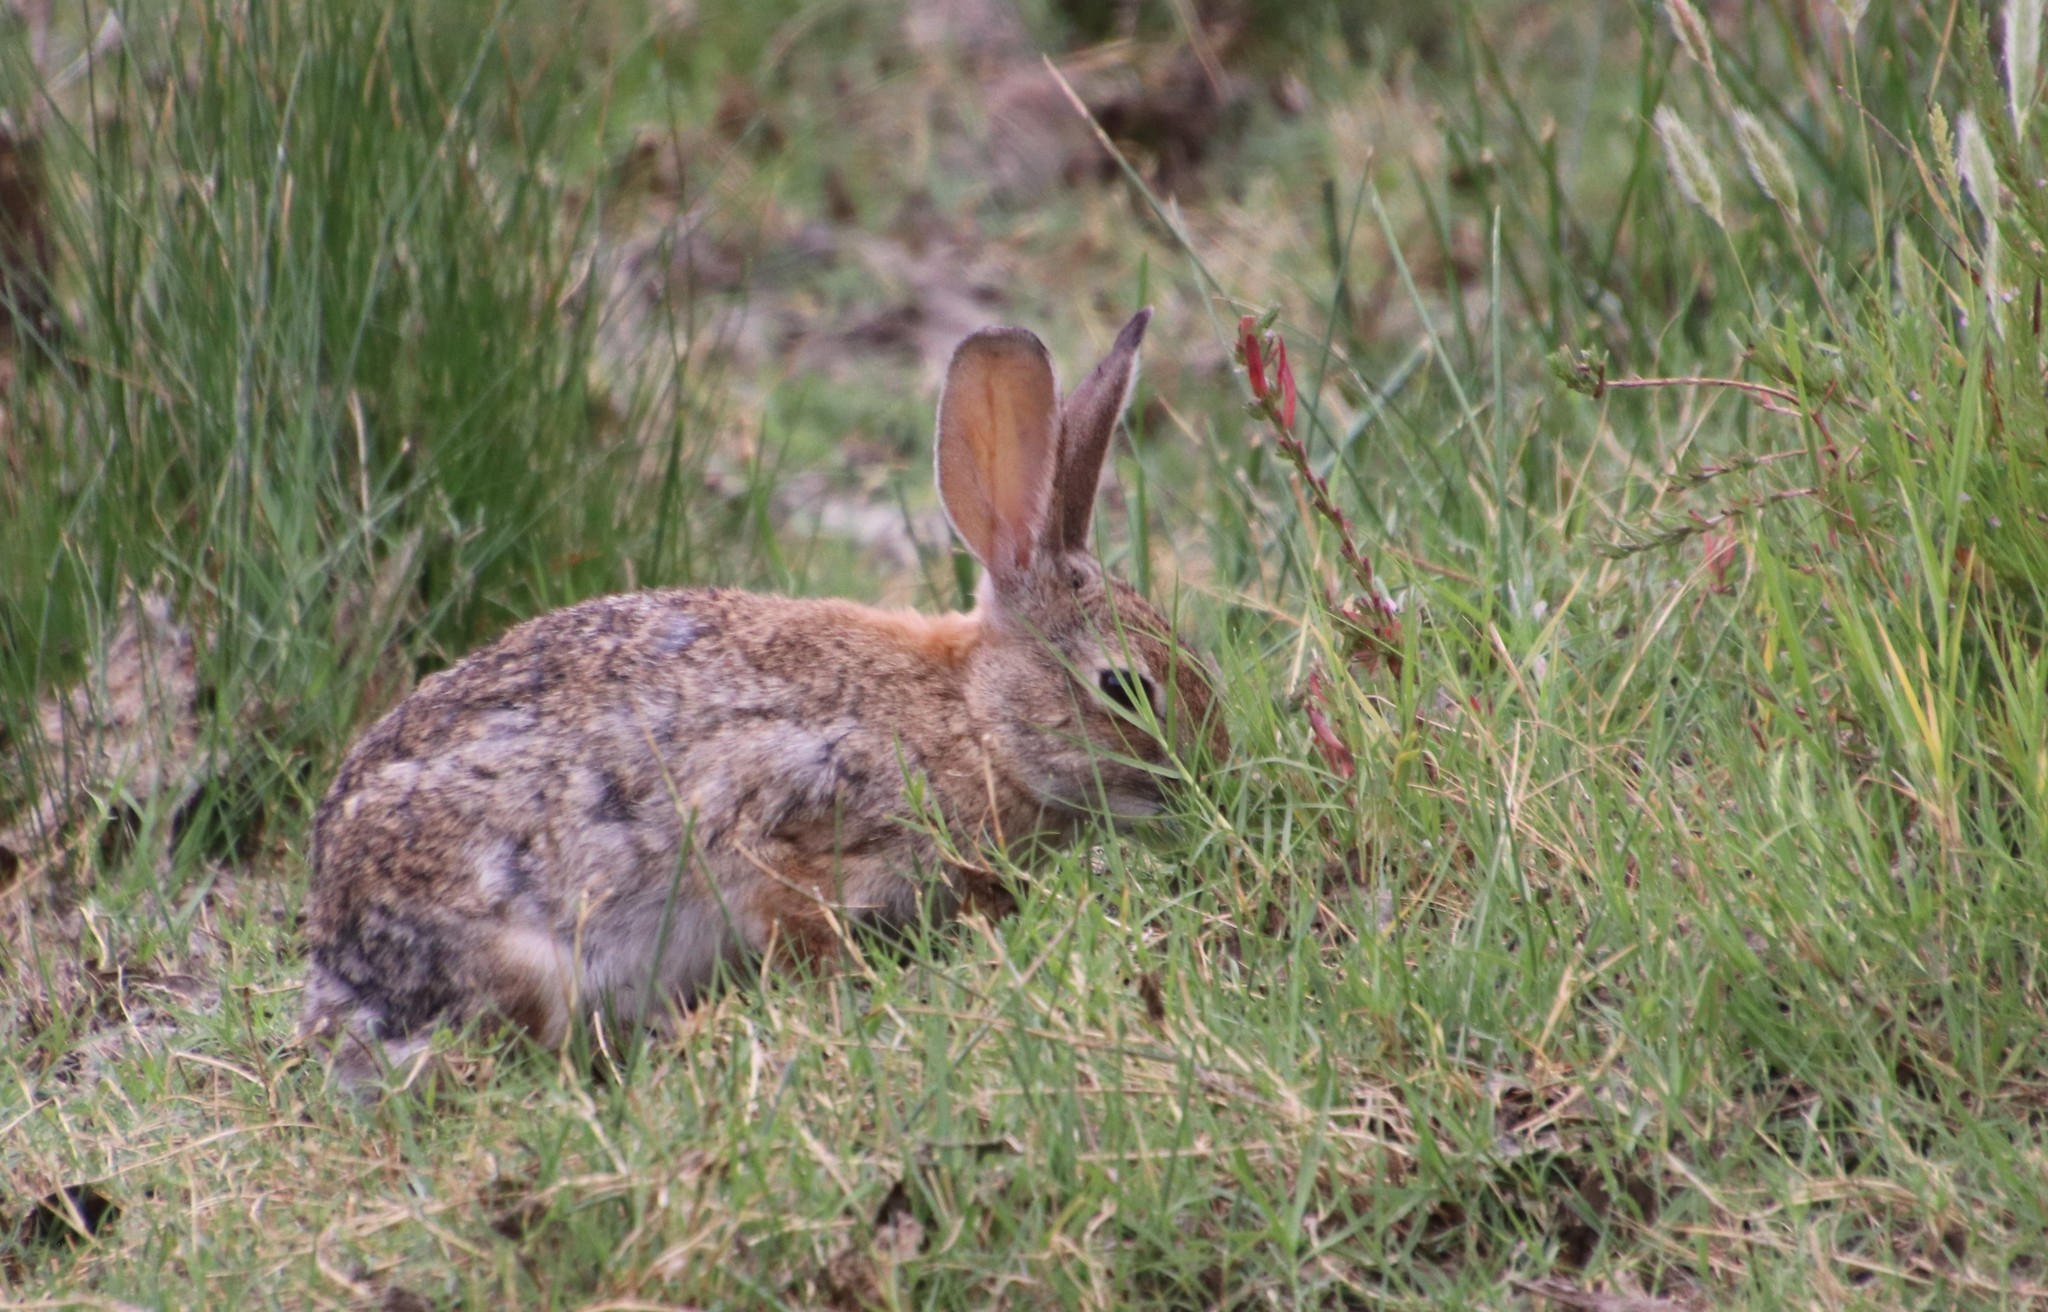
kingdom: Animalia
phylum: Chordata
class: Mammalia
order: Lagomorpha
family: Leporidae
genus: Sylvilagus
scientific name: Sylvilagus audubonii
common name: Desert cottontail
